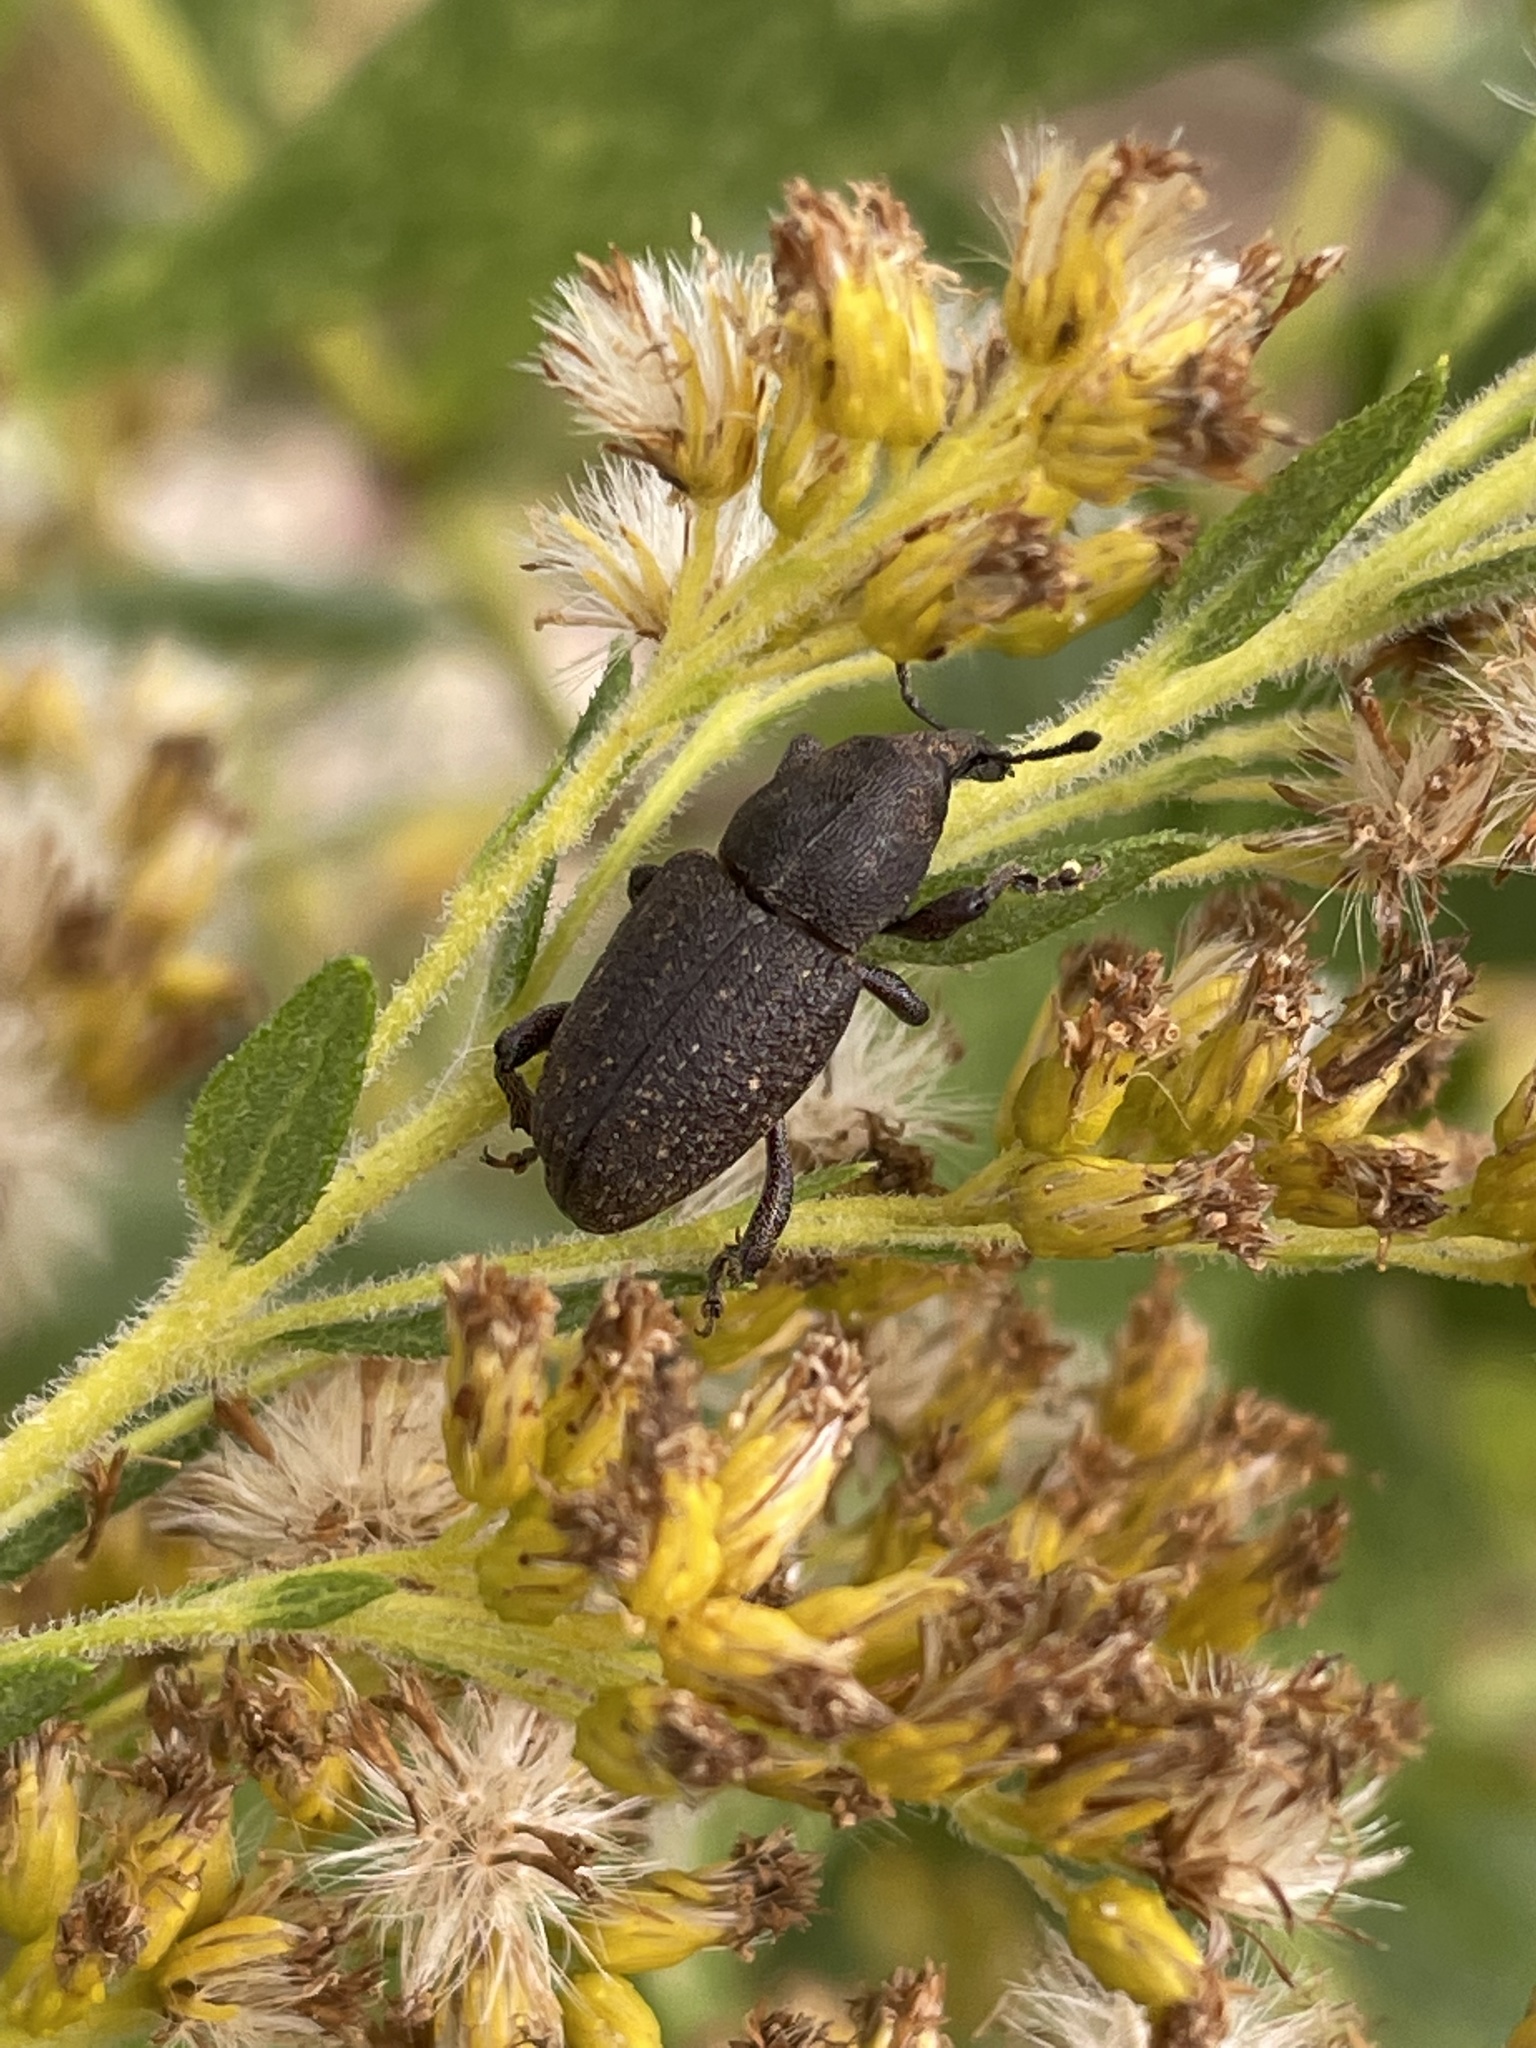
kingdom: Animalia
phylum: Arthropoda
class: Insecta
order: Coleoptera
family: Curculionidae
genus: Pachylobius
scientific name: Pachylobius picivorus
